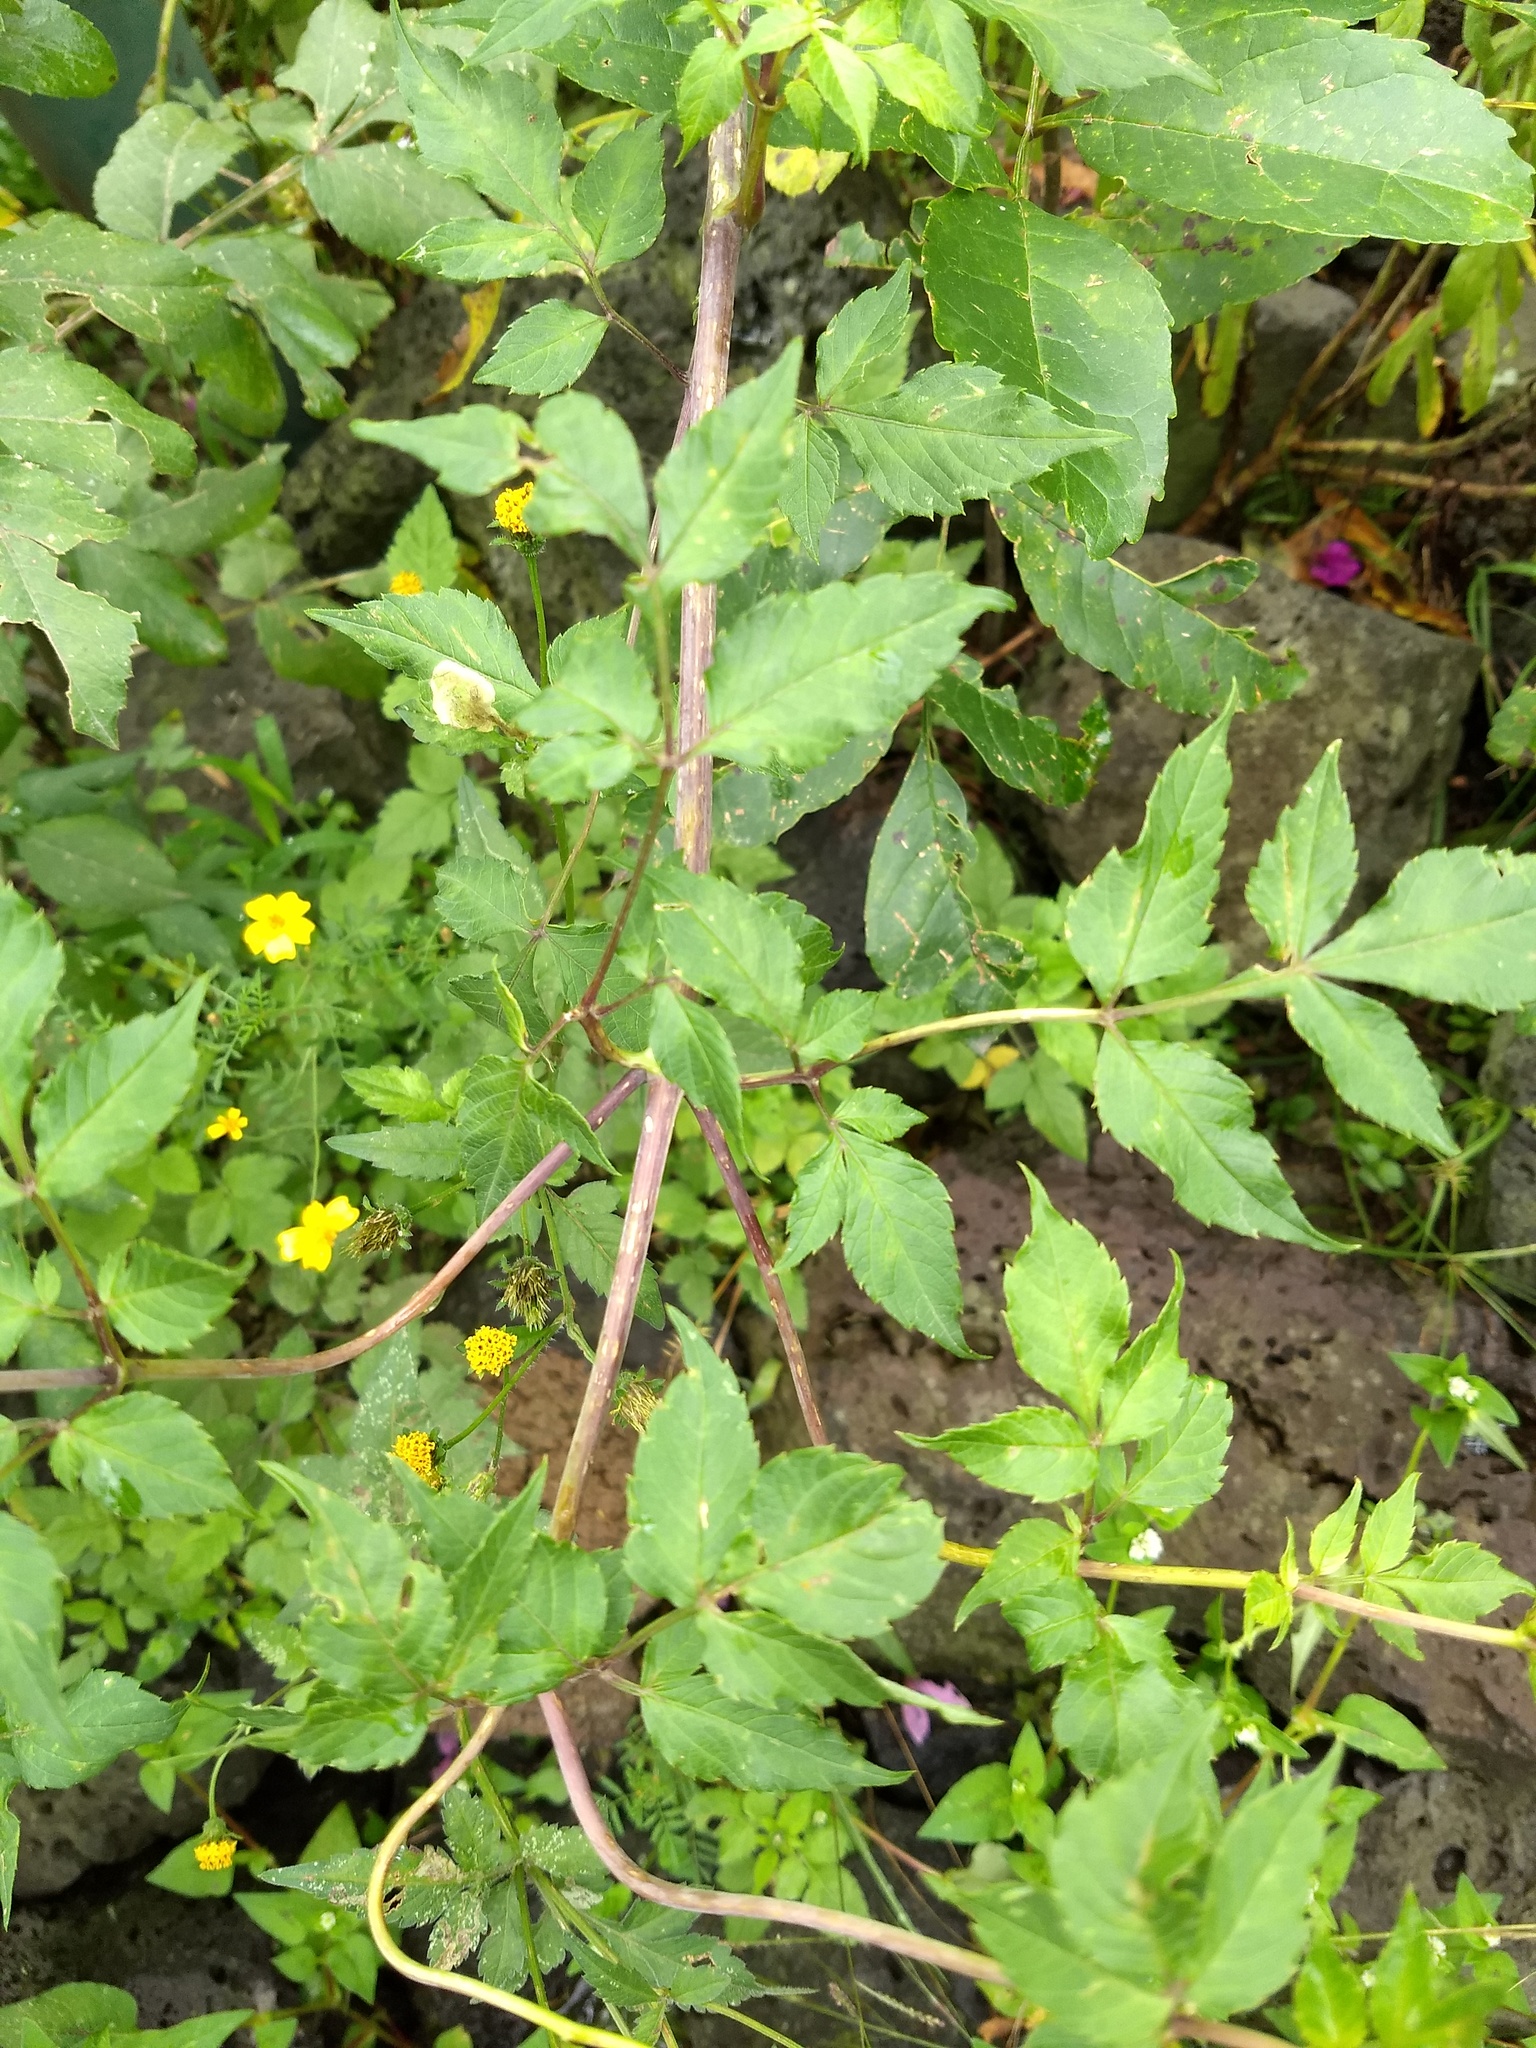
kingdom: Plantae
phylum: Tracheophyta
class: Magnoliopsida
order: Asterales
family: Asteraceae
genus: Dahlia
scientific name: Dahlia coccinea
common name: Red dahlia
